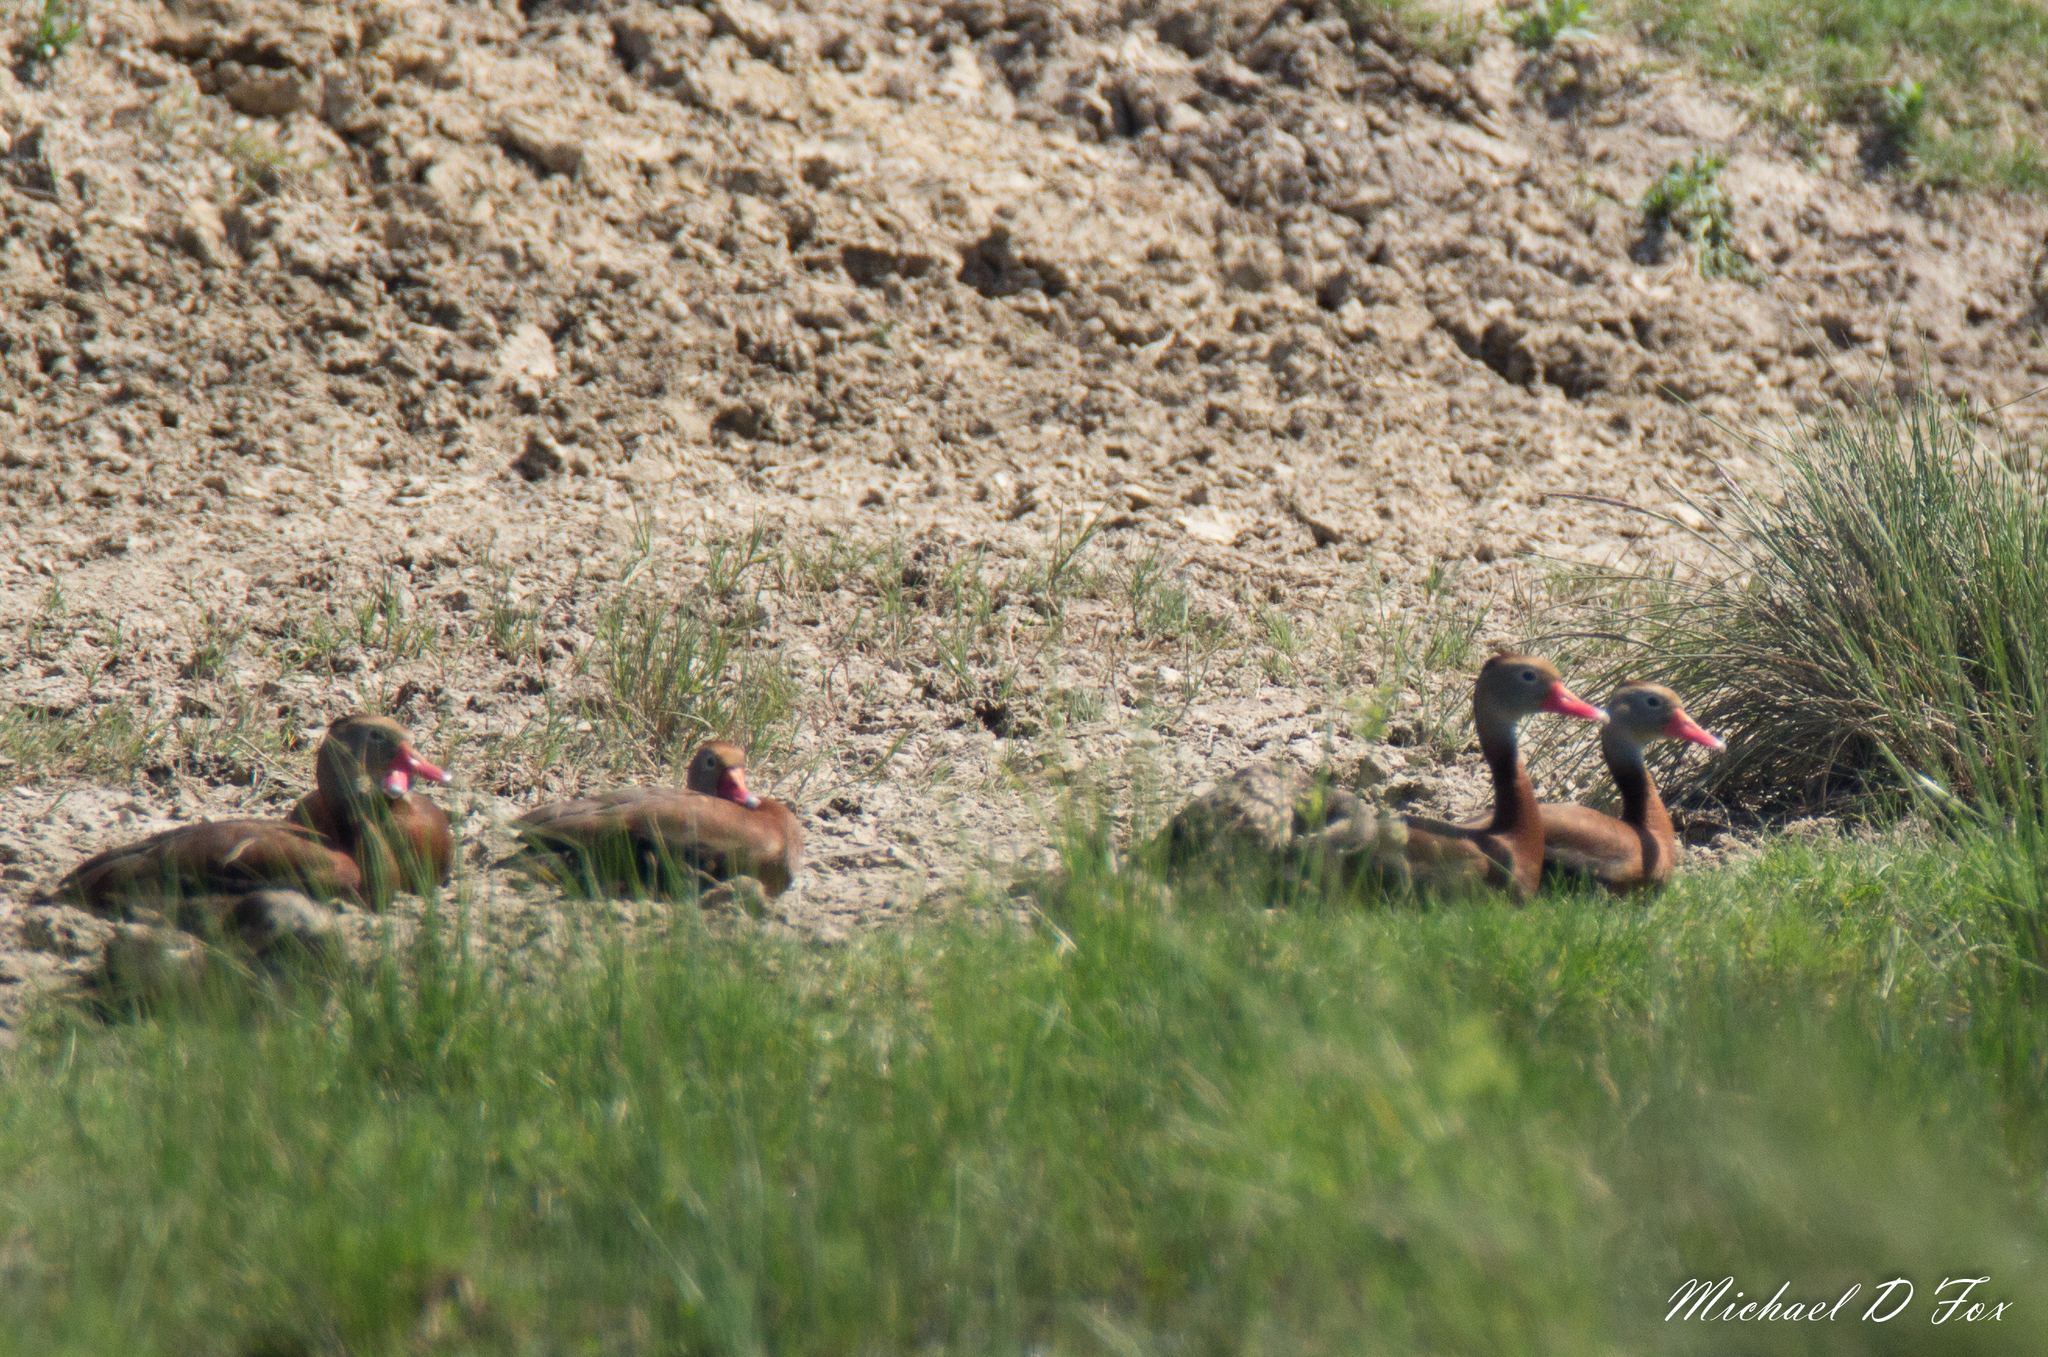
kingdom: Animalia
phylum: Chordata
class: Aves
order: Anseriformes
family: Anatidae
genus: Dendrocygna
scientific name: Dendrocygna autumnalis
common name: Black-bellied whistling duck
